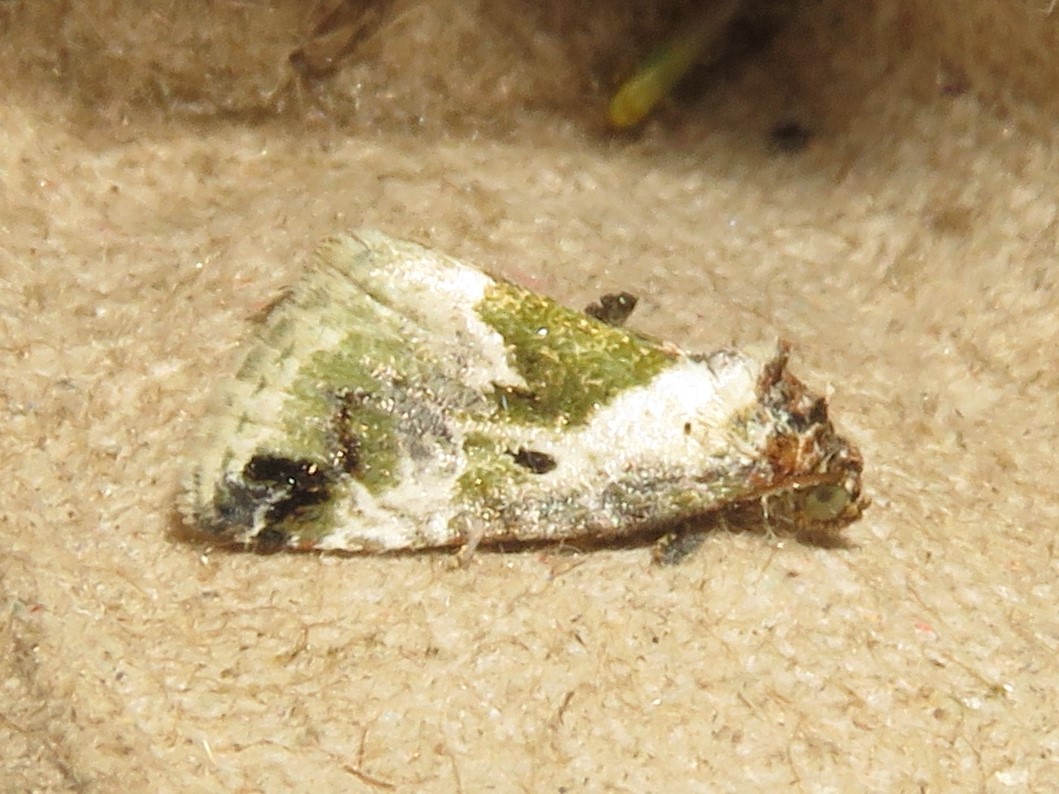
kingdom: Animalia
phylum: Arthropoda
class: Insecta
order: Lepidoptera
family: Noctuidae
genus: Maliattha
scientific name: Maliattha synochitis
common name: Black-dotted glyph
